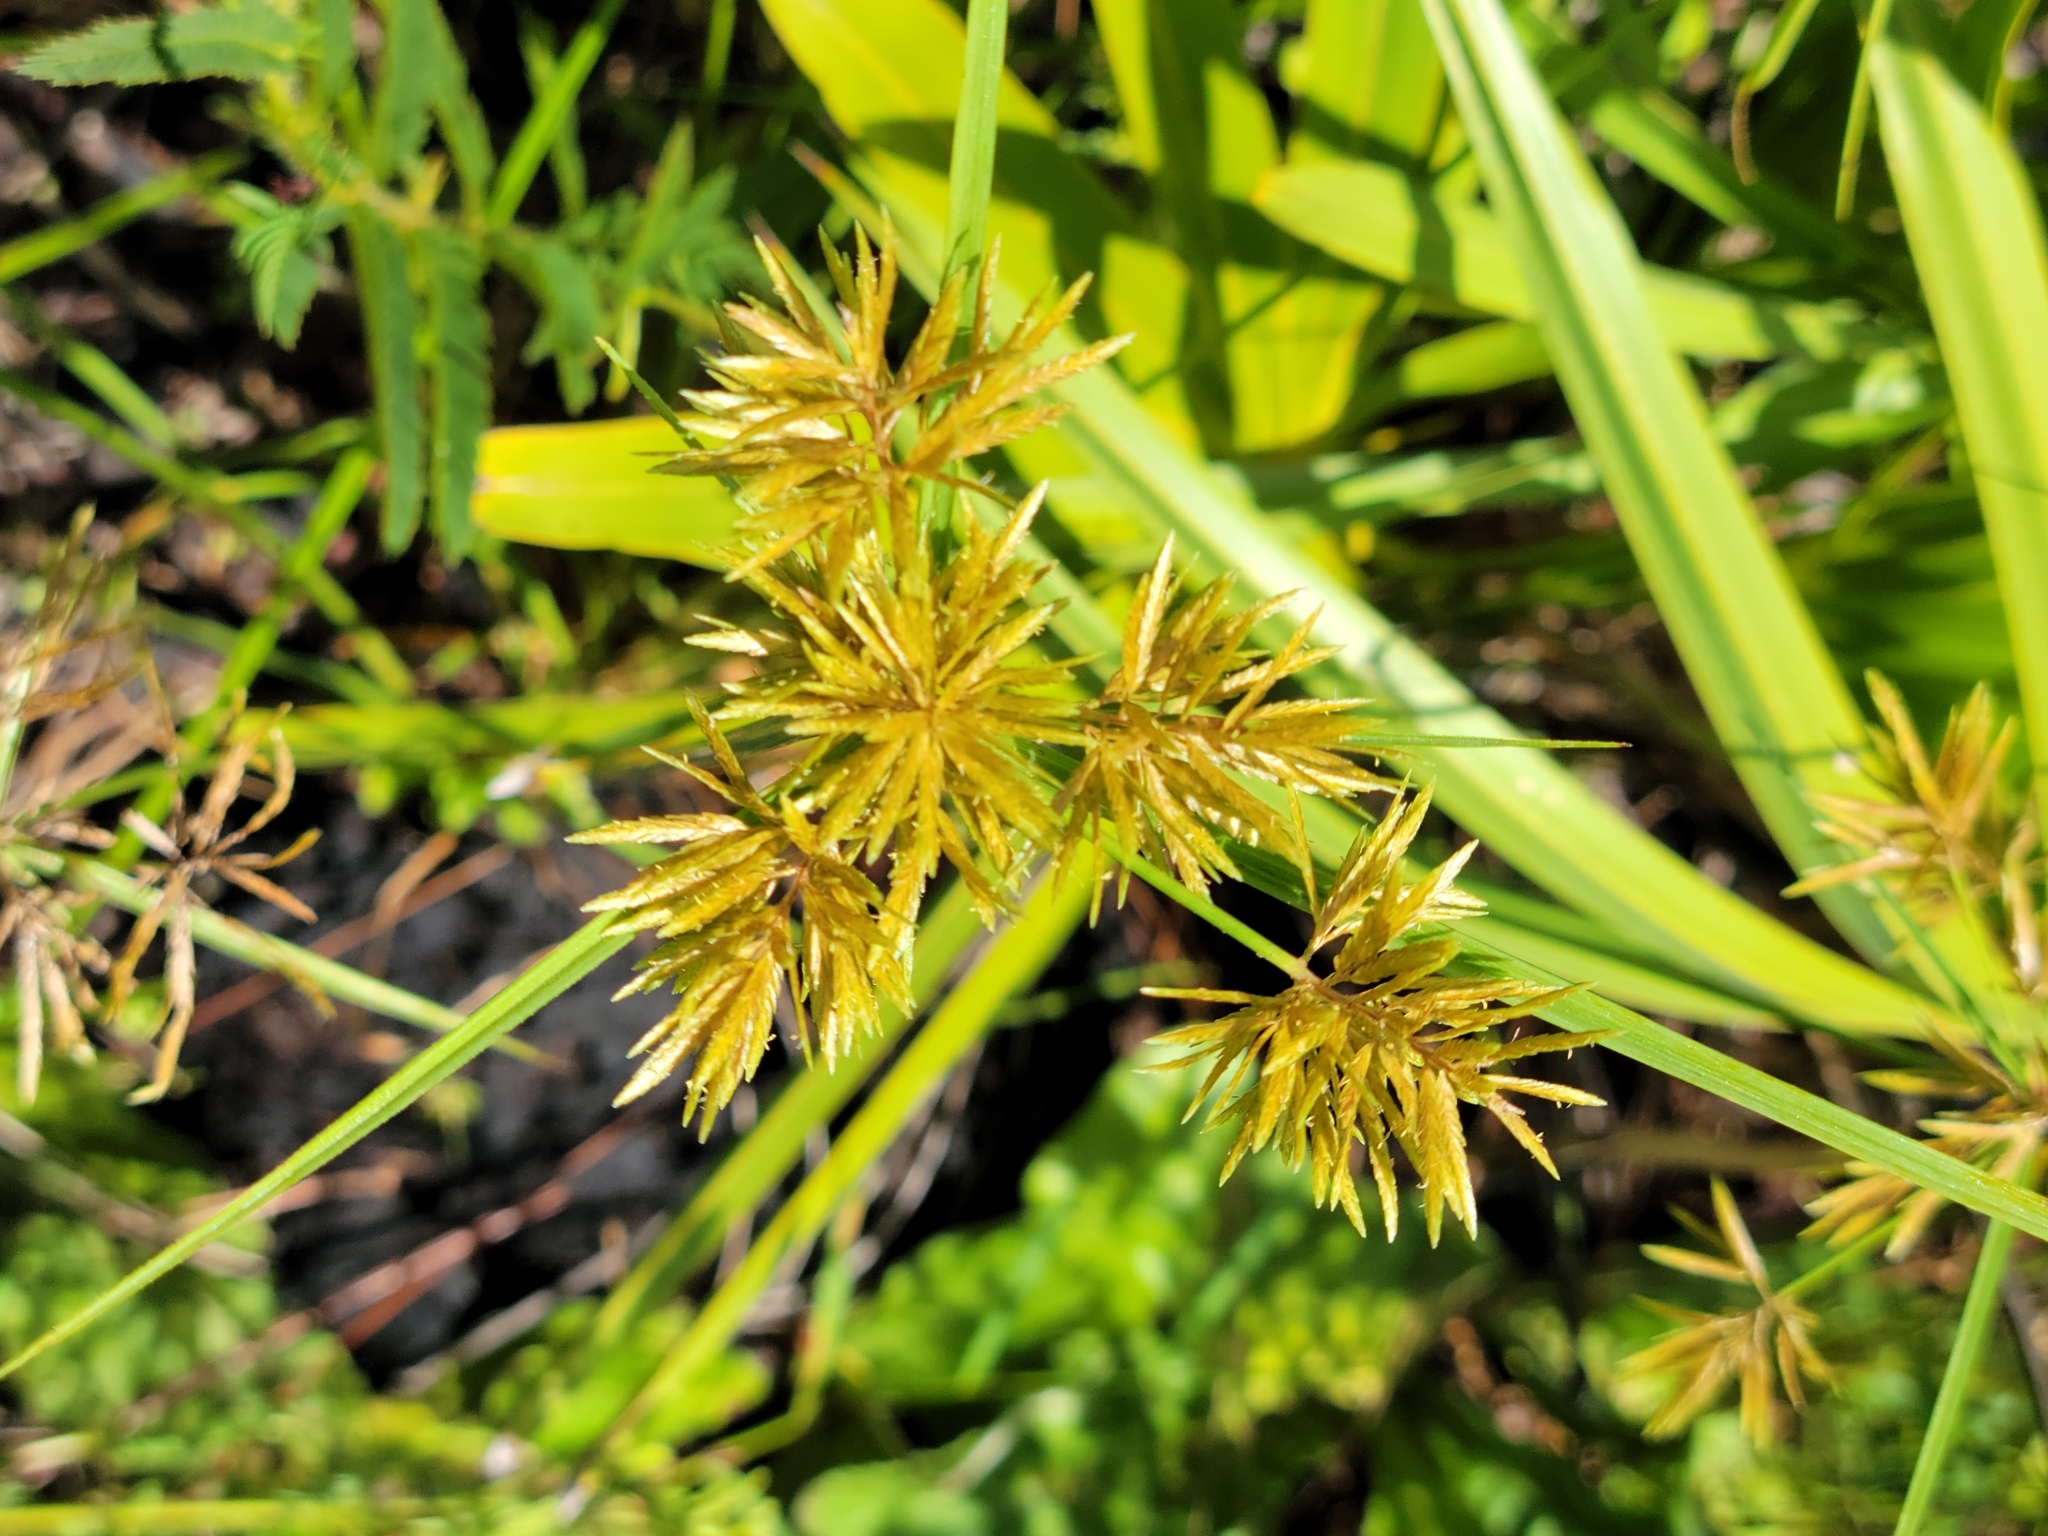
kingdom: Plantae
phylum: Tracheophyta
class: Liliopsida
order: Poales
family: Cyperaceae
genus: Cyperus
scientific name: Cyperus polystachyos
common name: Bunchy flat sedge
